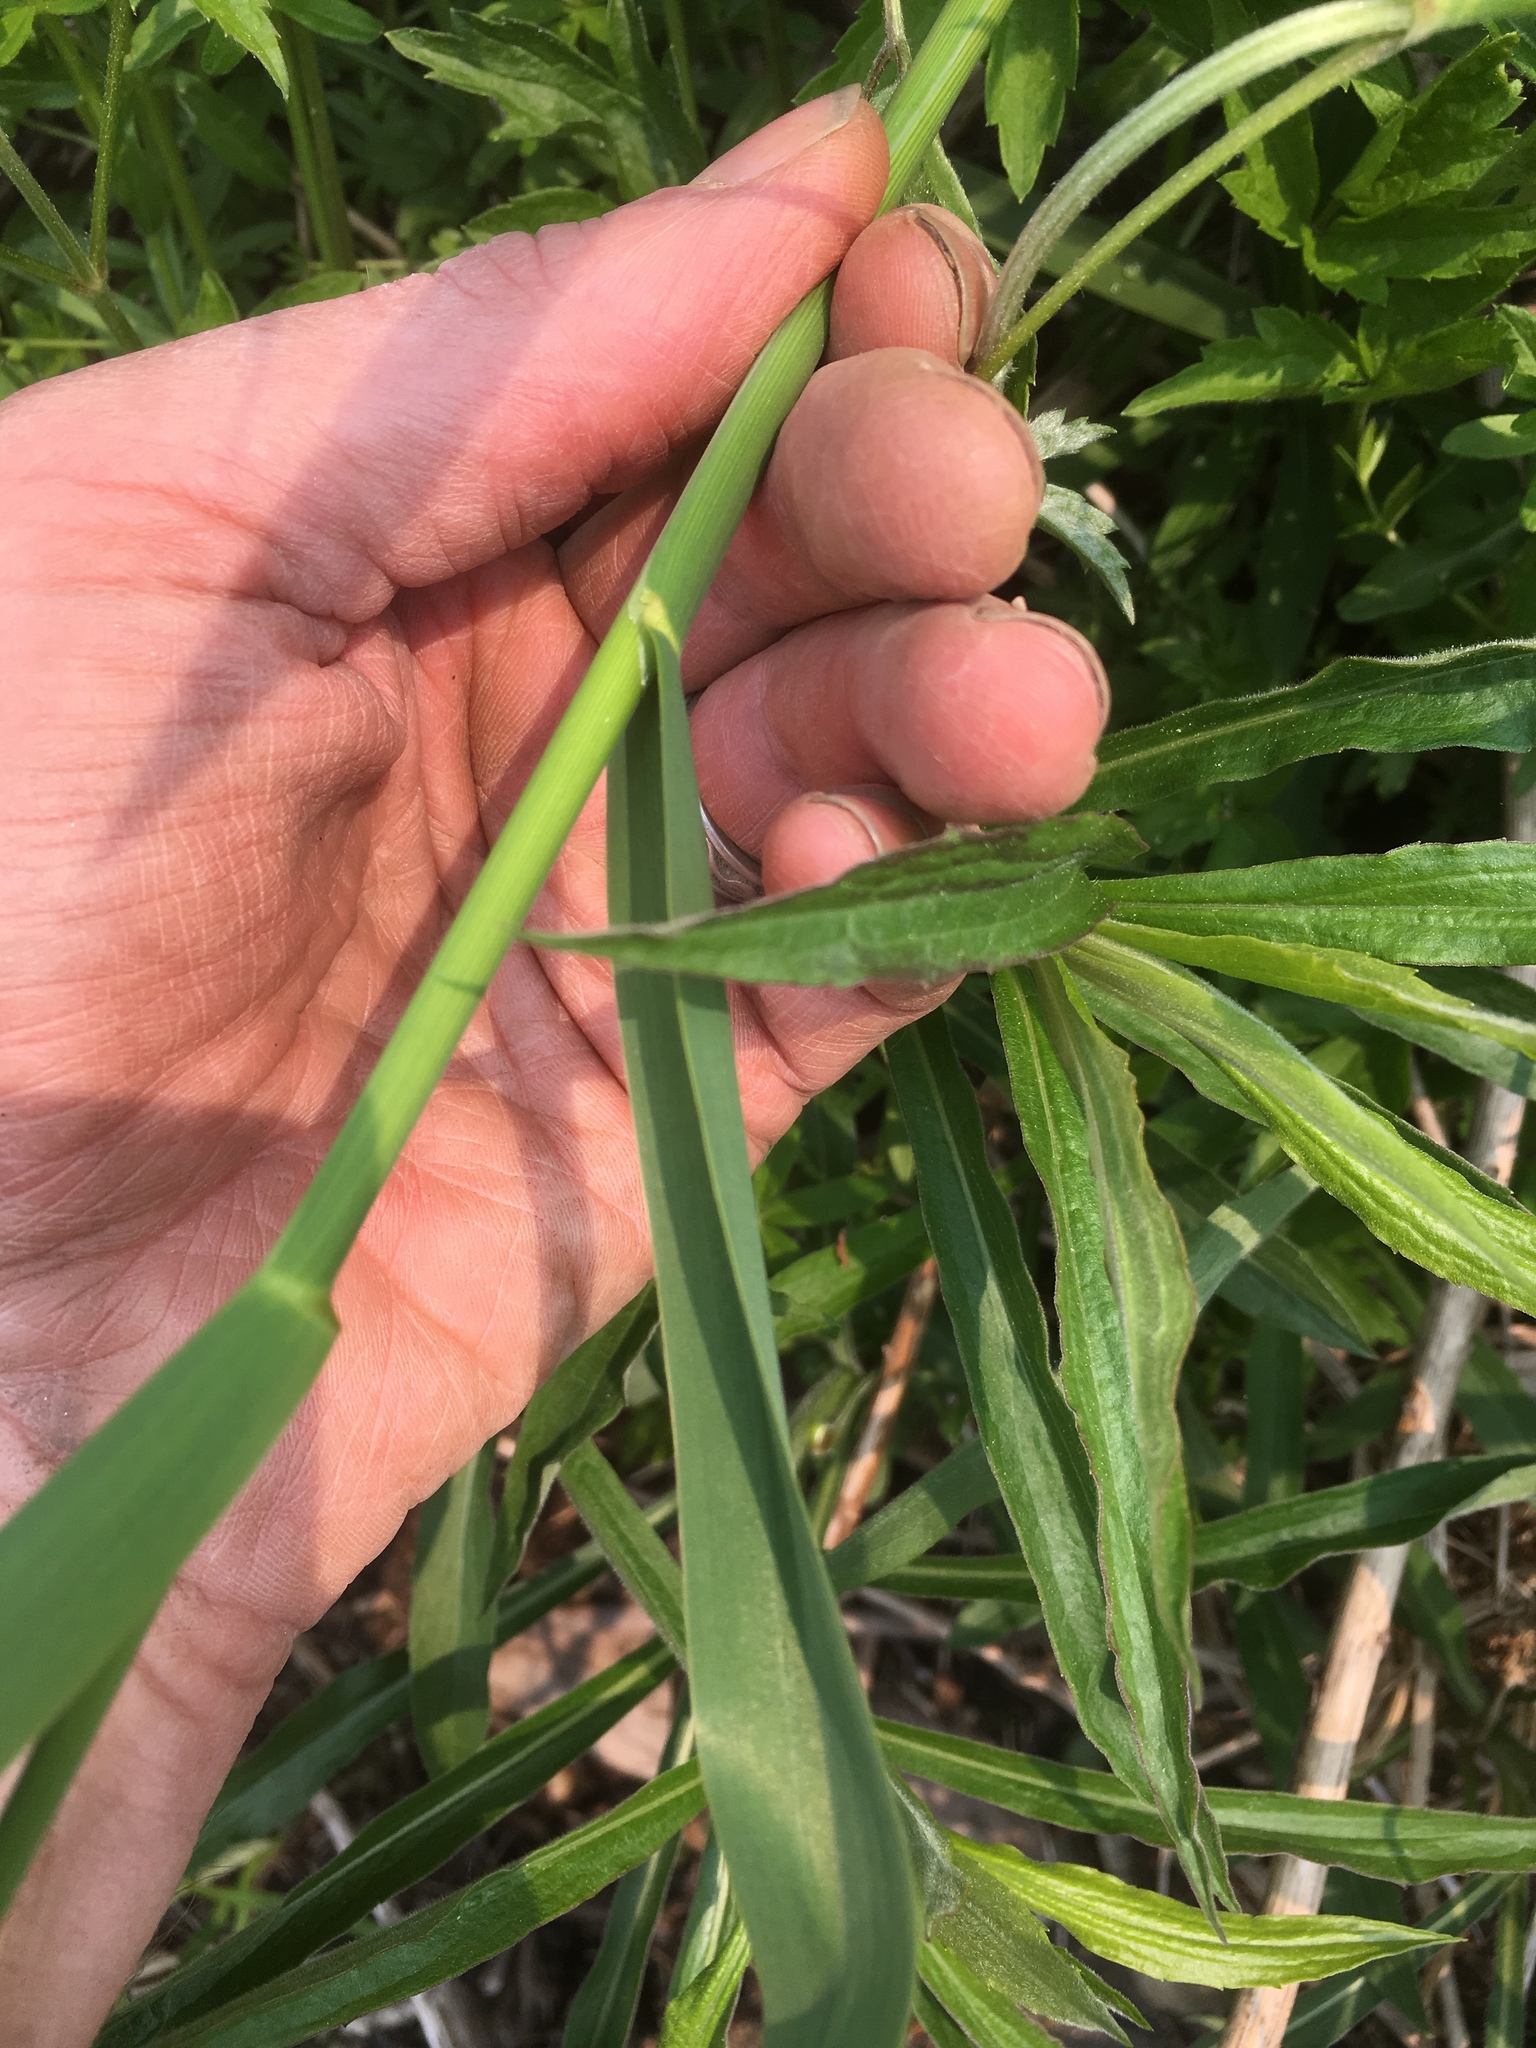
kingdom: Plantae
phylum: Tracheophyta
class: Liliopsida
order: Poales
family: Poaceae
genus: Phragmites
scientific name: Phragmites australis
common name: Common reed
